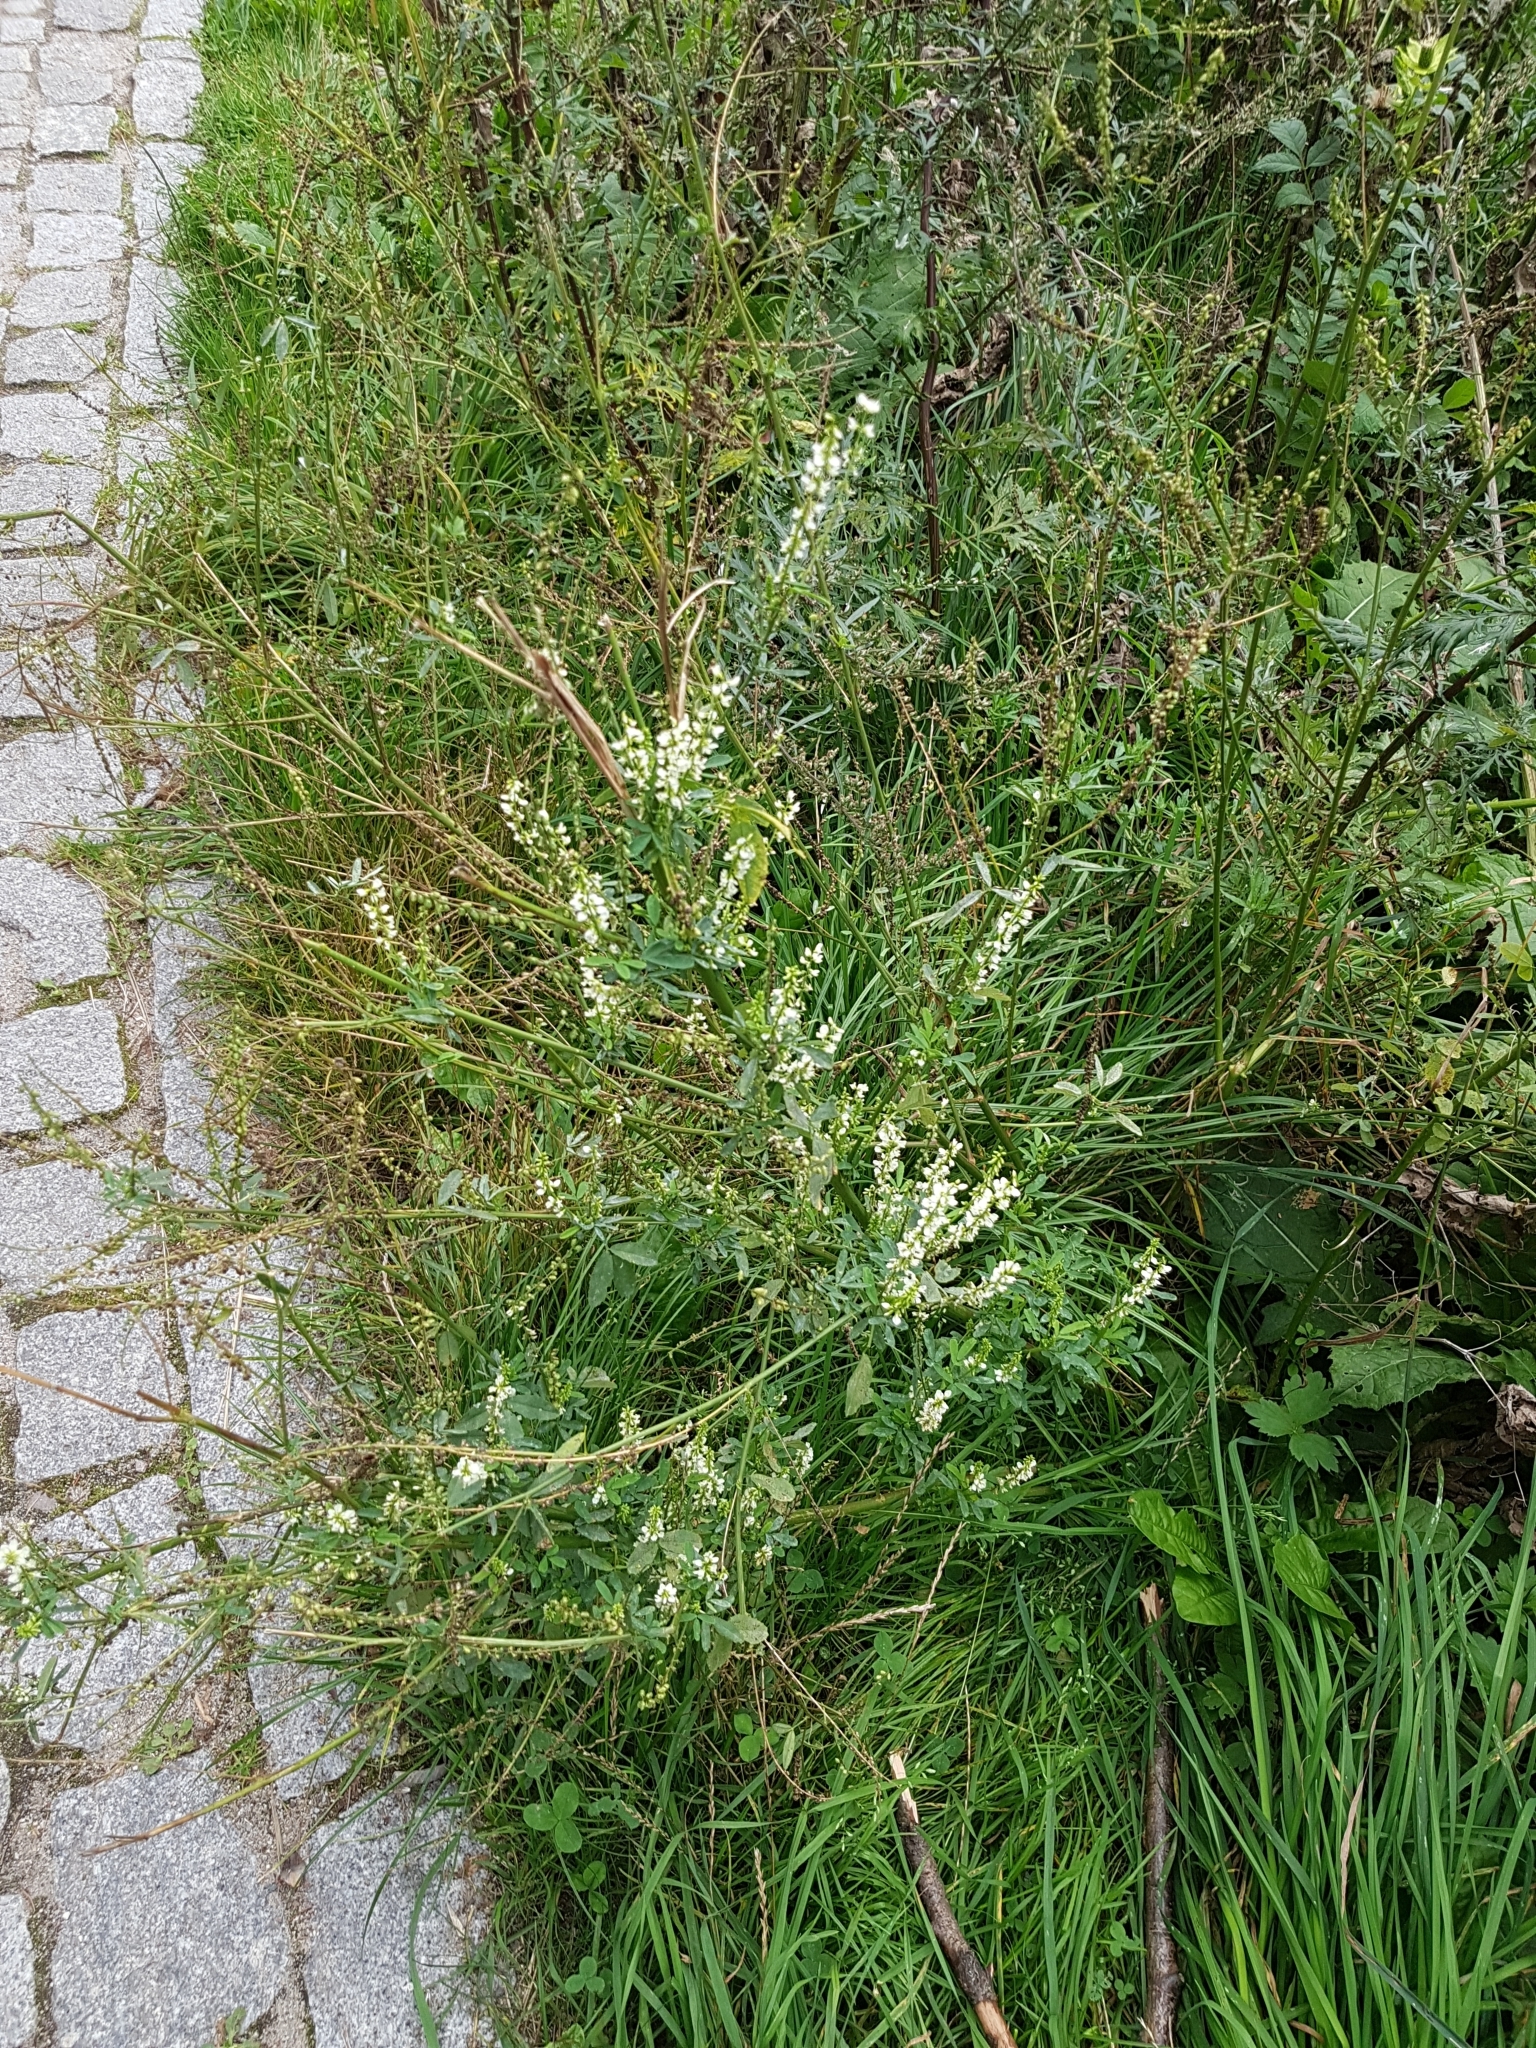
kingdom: Plantae
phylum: Tracheophyta
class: Magnoliopsida
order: Fabales
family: Fabaceae
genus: Melilotus
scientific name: Melilotus albus
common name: White melilot
